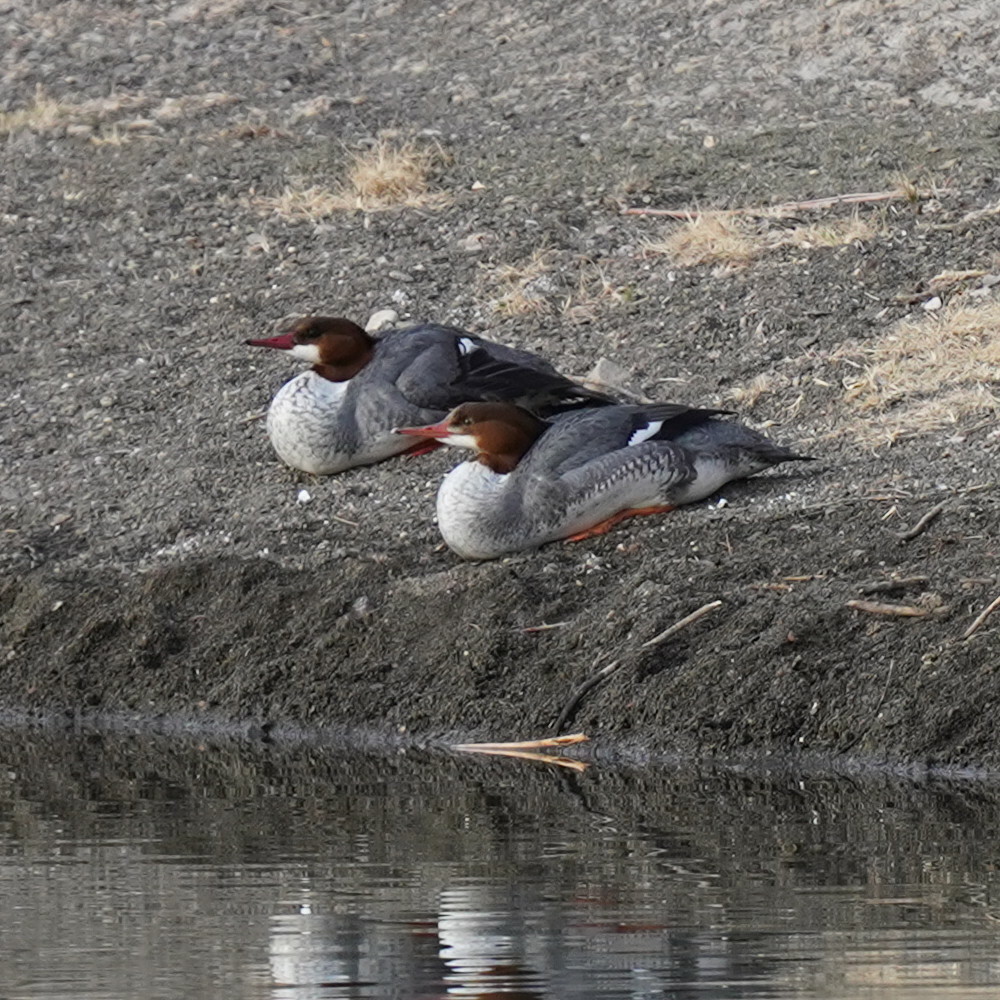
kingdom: Animalia
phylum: Chordata
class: Aves
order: Anseriformes
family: Anatidae
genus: Mergus
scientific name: Mergus merganser
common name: Common merganser
